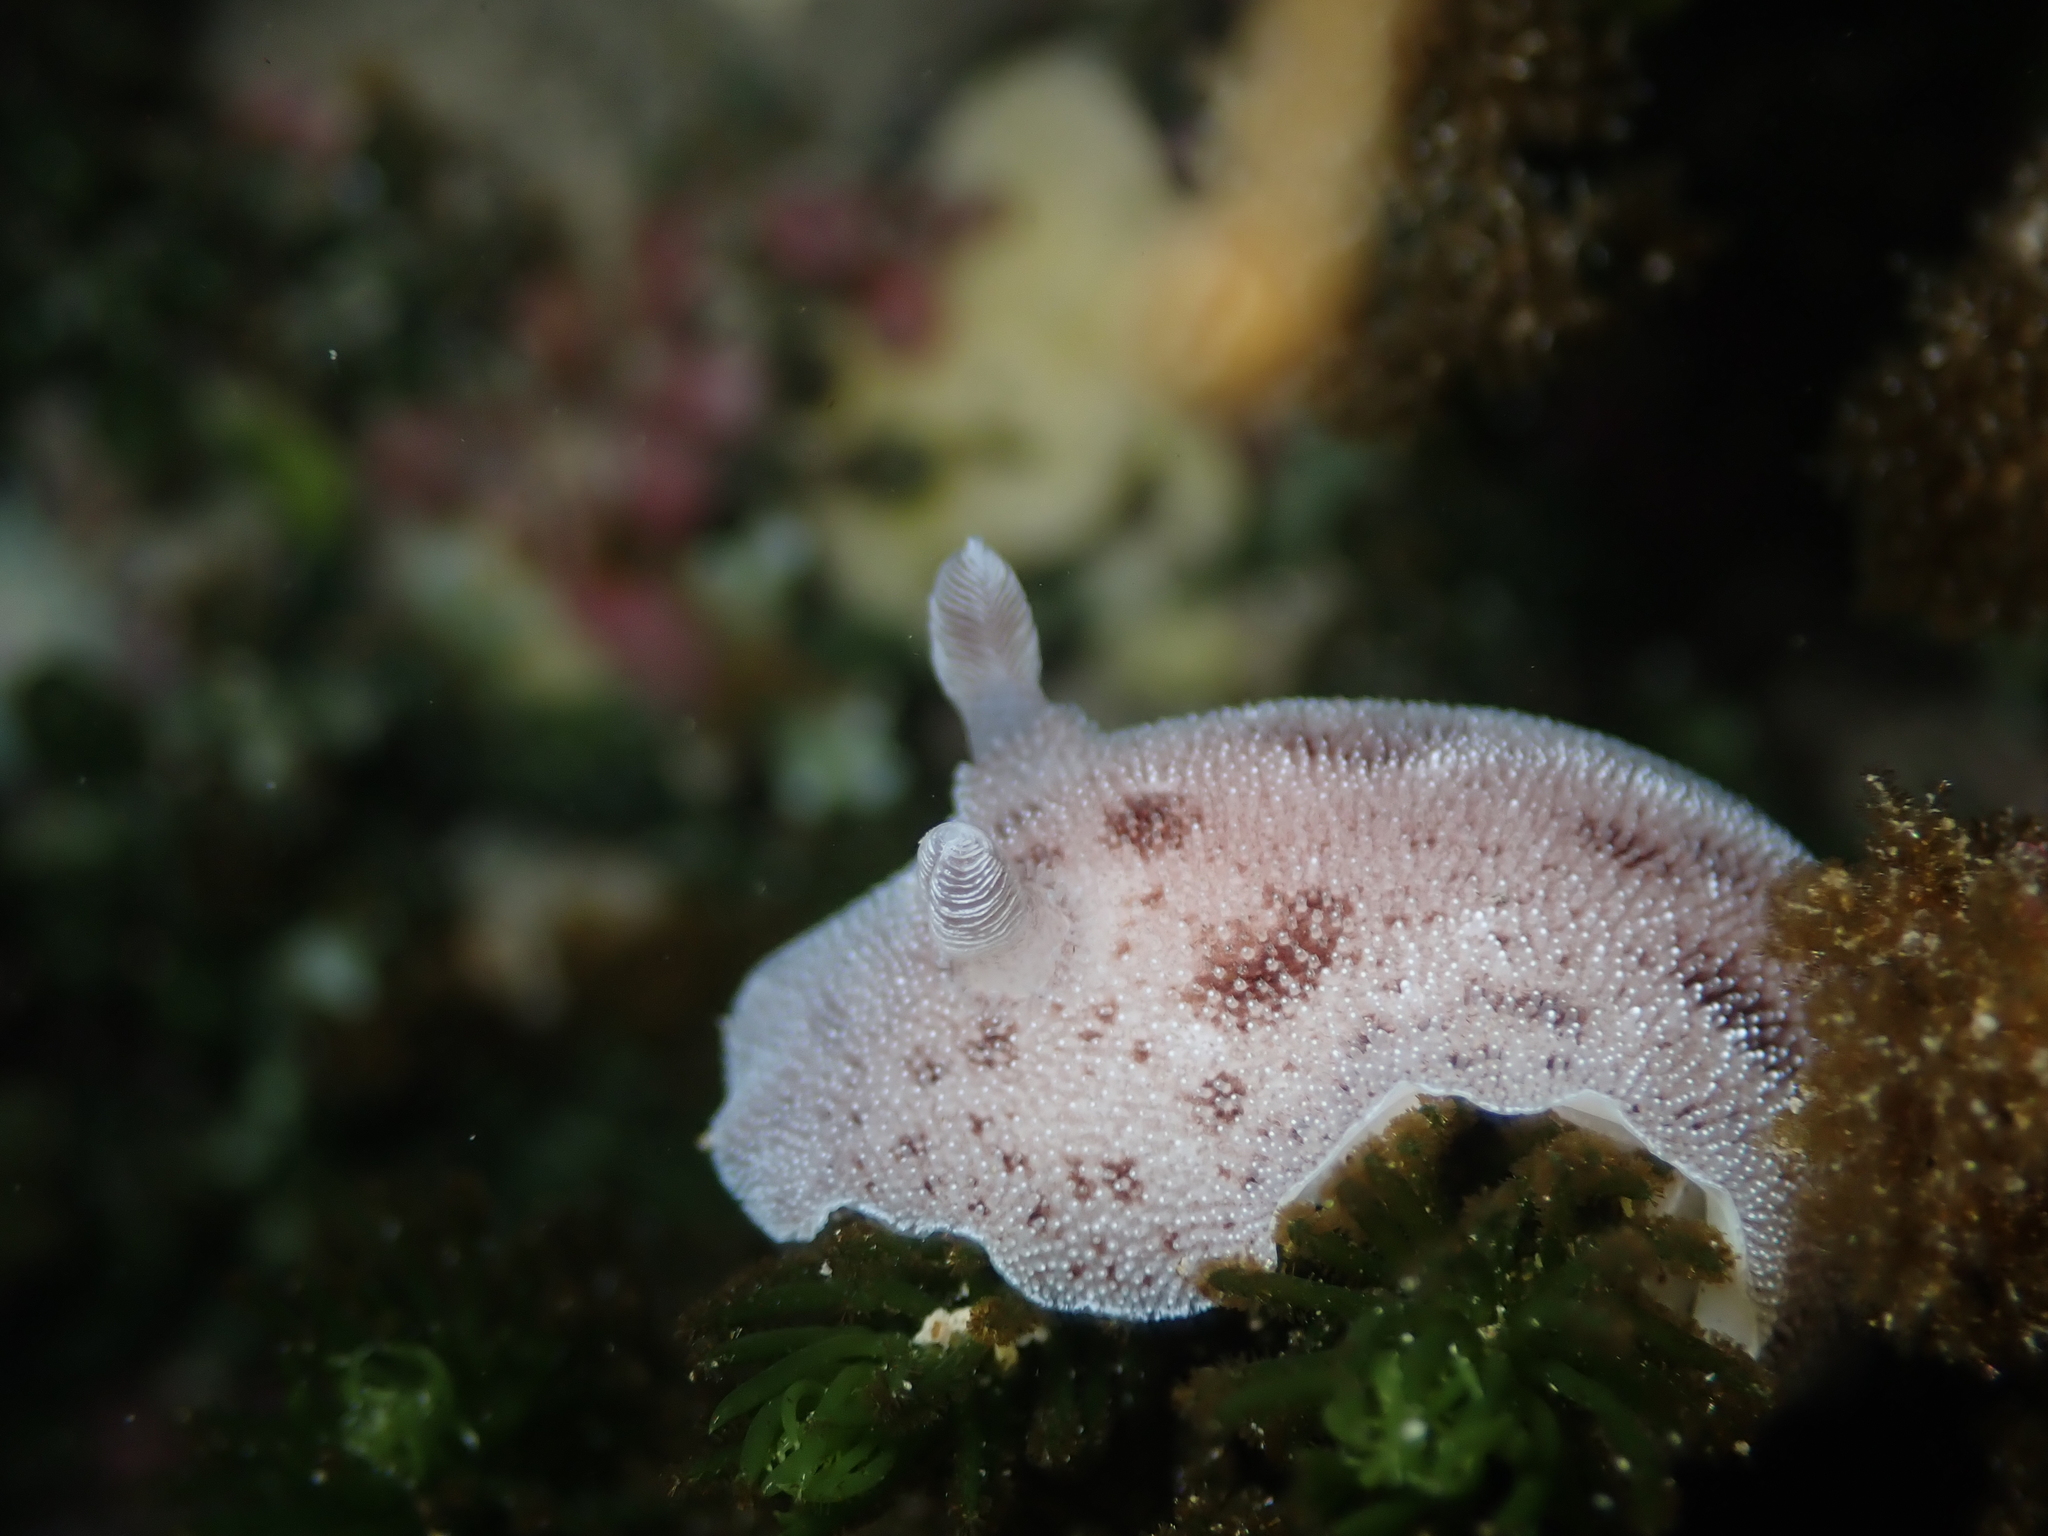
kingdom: Animalia
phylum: Mollusca
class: Gastropoda
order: Nudibranchia
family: Discodorididae
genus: Alloiodoris
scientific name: Alloiodoris lanuginata
